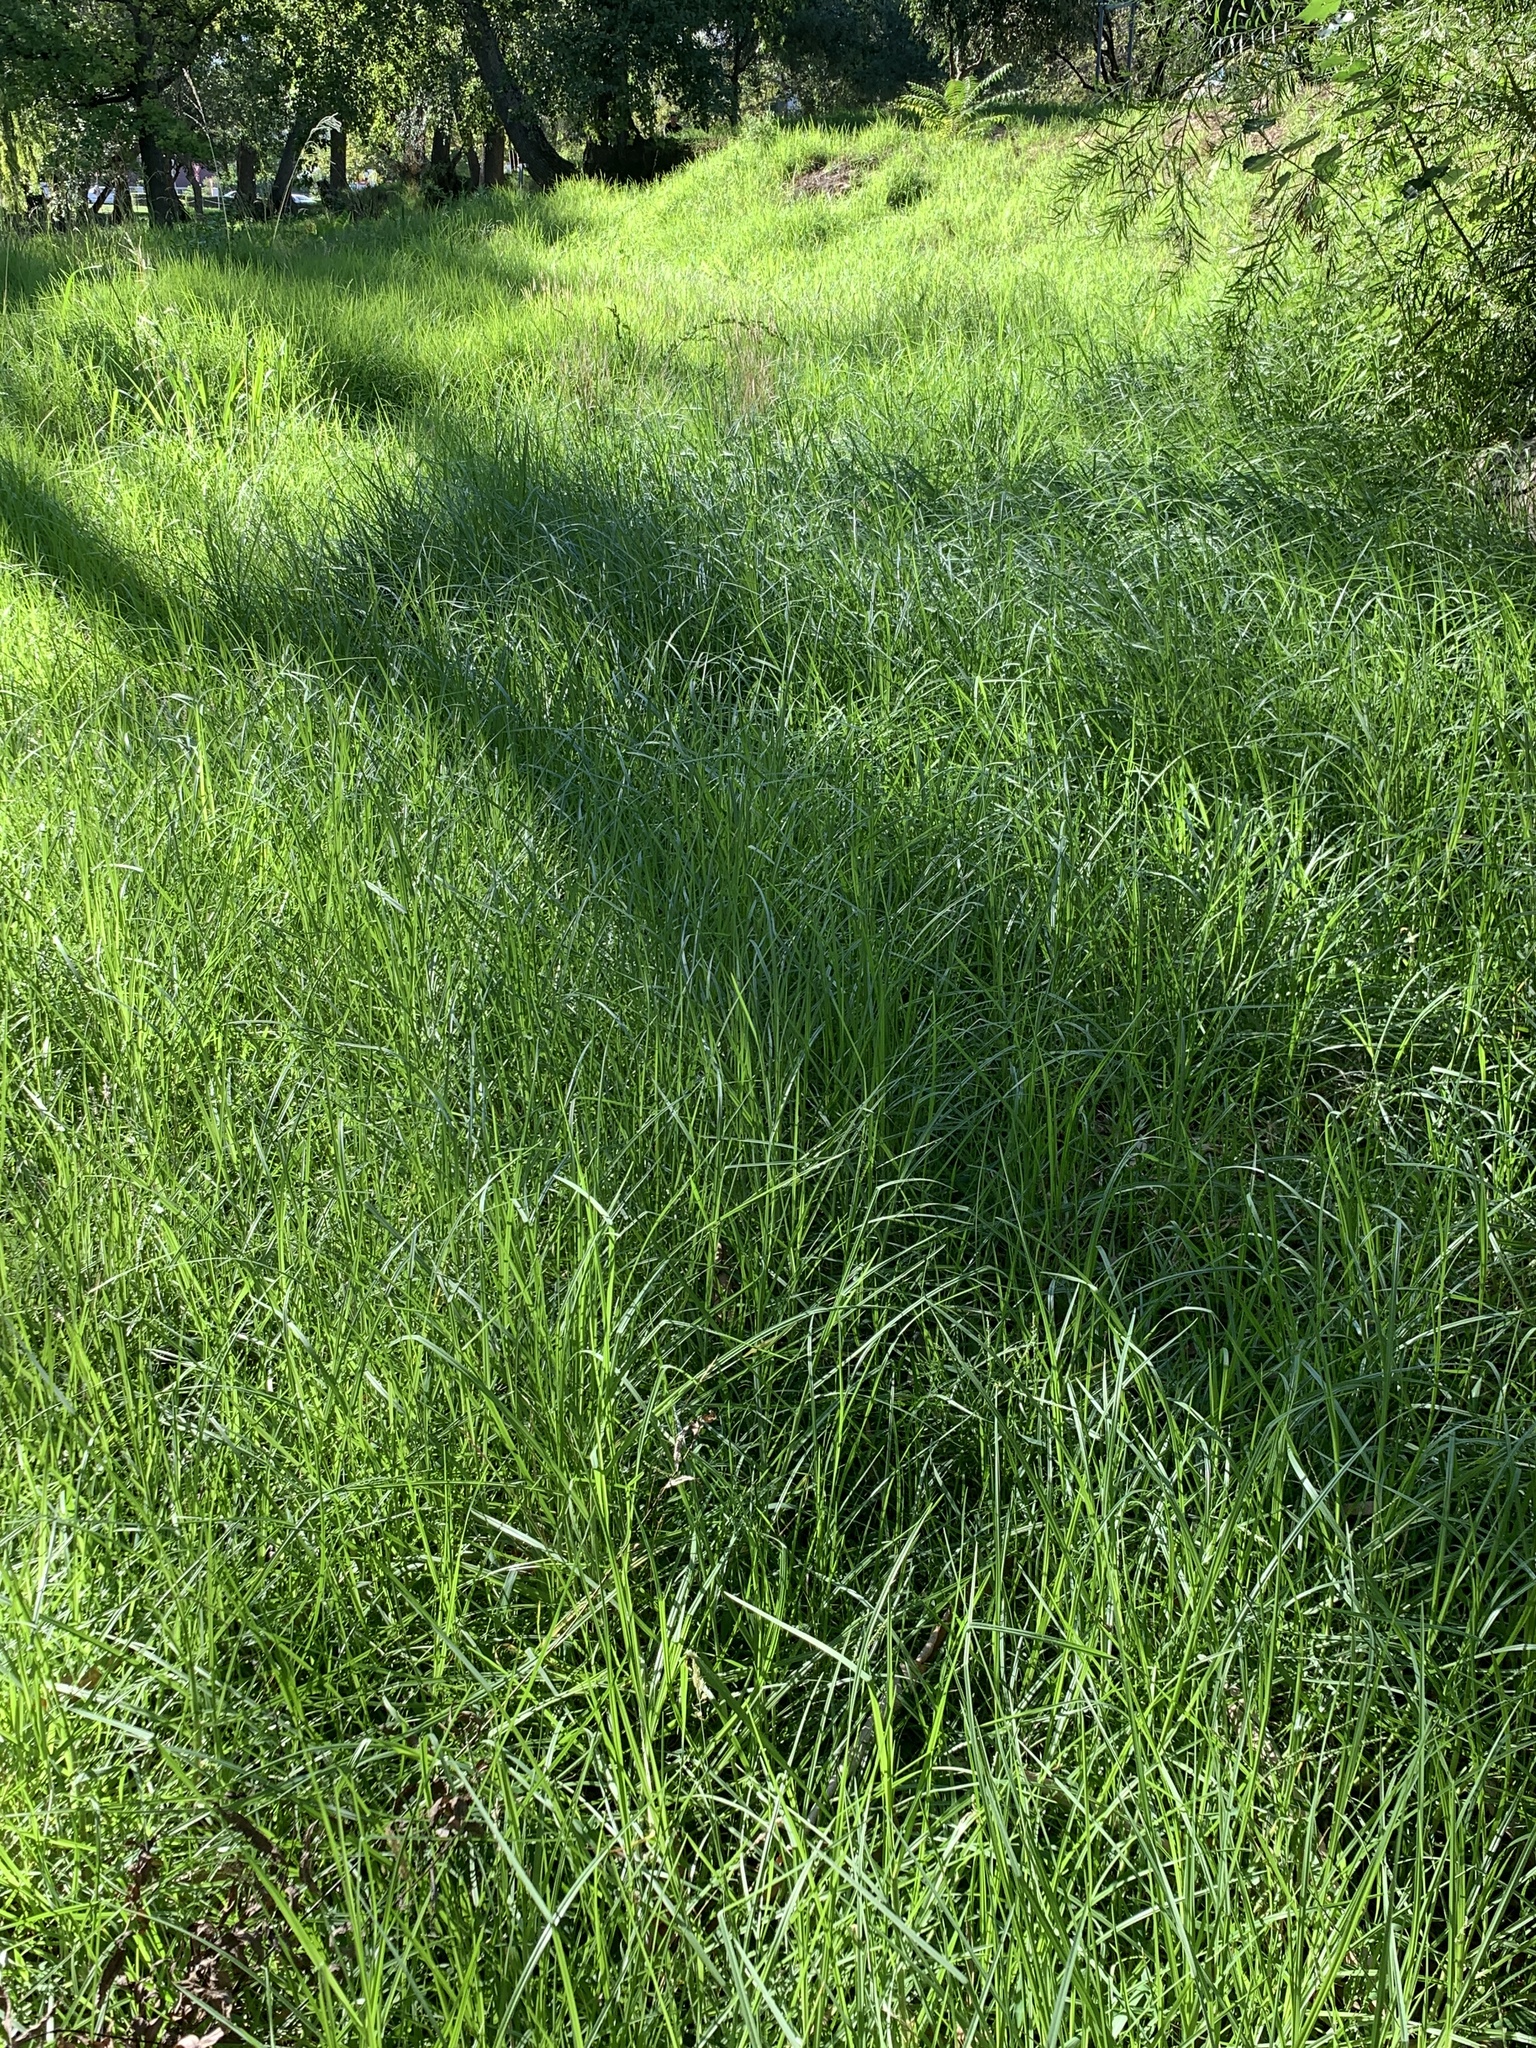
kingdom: Plantae
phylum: Tracheophyta
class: Liliopsida
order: Poales
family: Poaceae
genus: Cenchrus
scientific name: Cenchrus clandestinus
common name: Kikuyugrass
